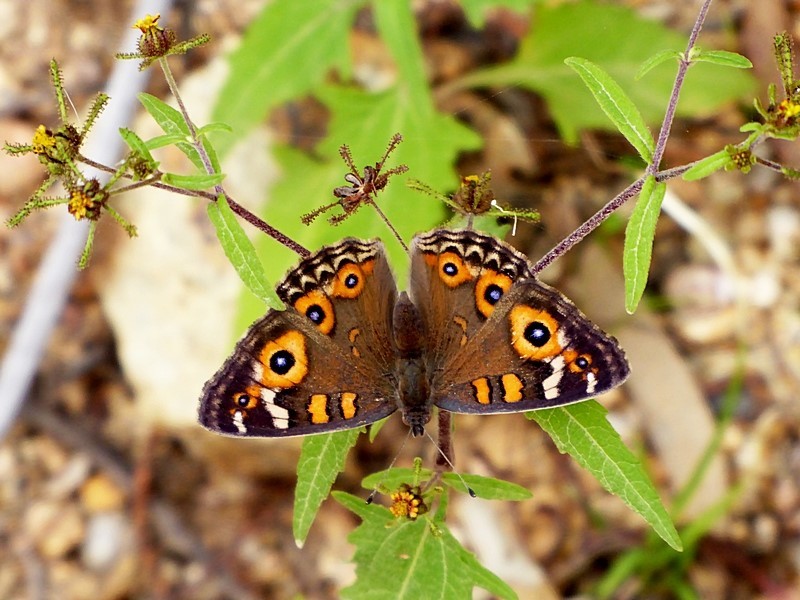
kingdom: Animalia
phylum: Arthropoda
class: Insecta
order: Lepidoptera
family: Nymphalidae
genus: Junonia
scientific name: Junonia villida
